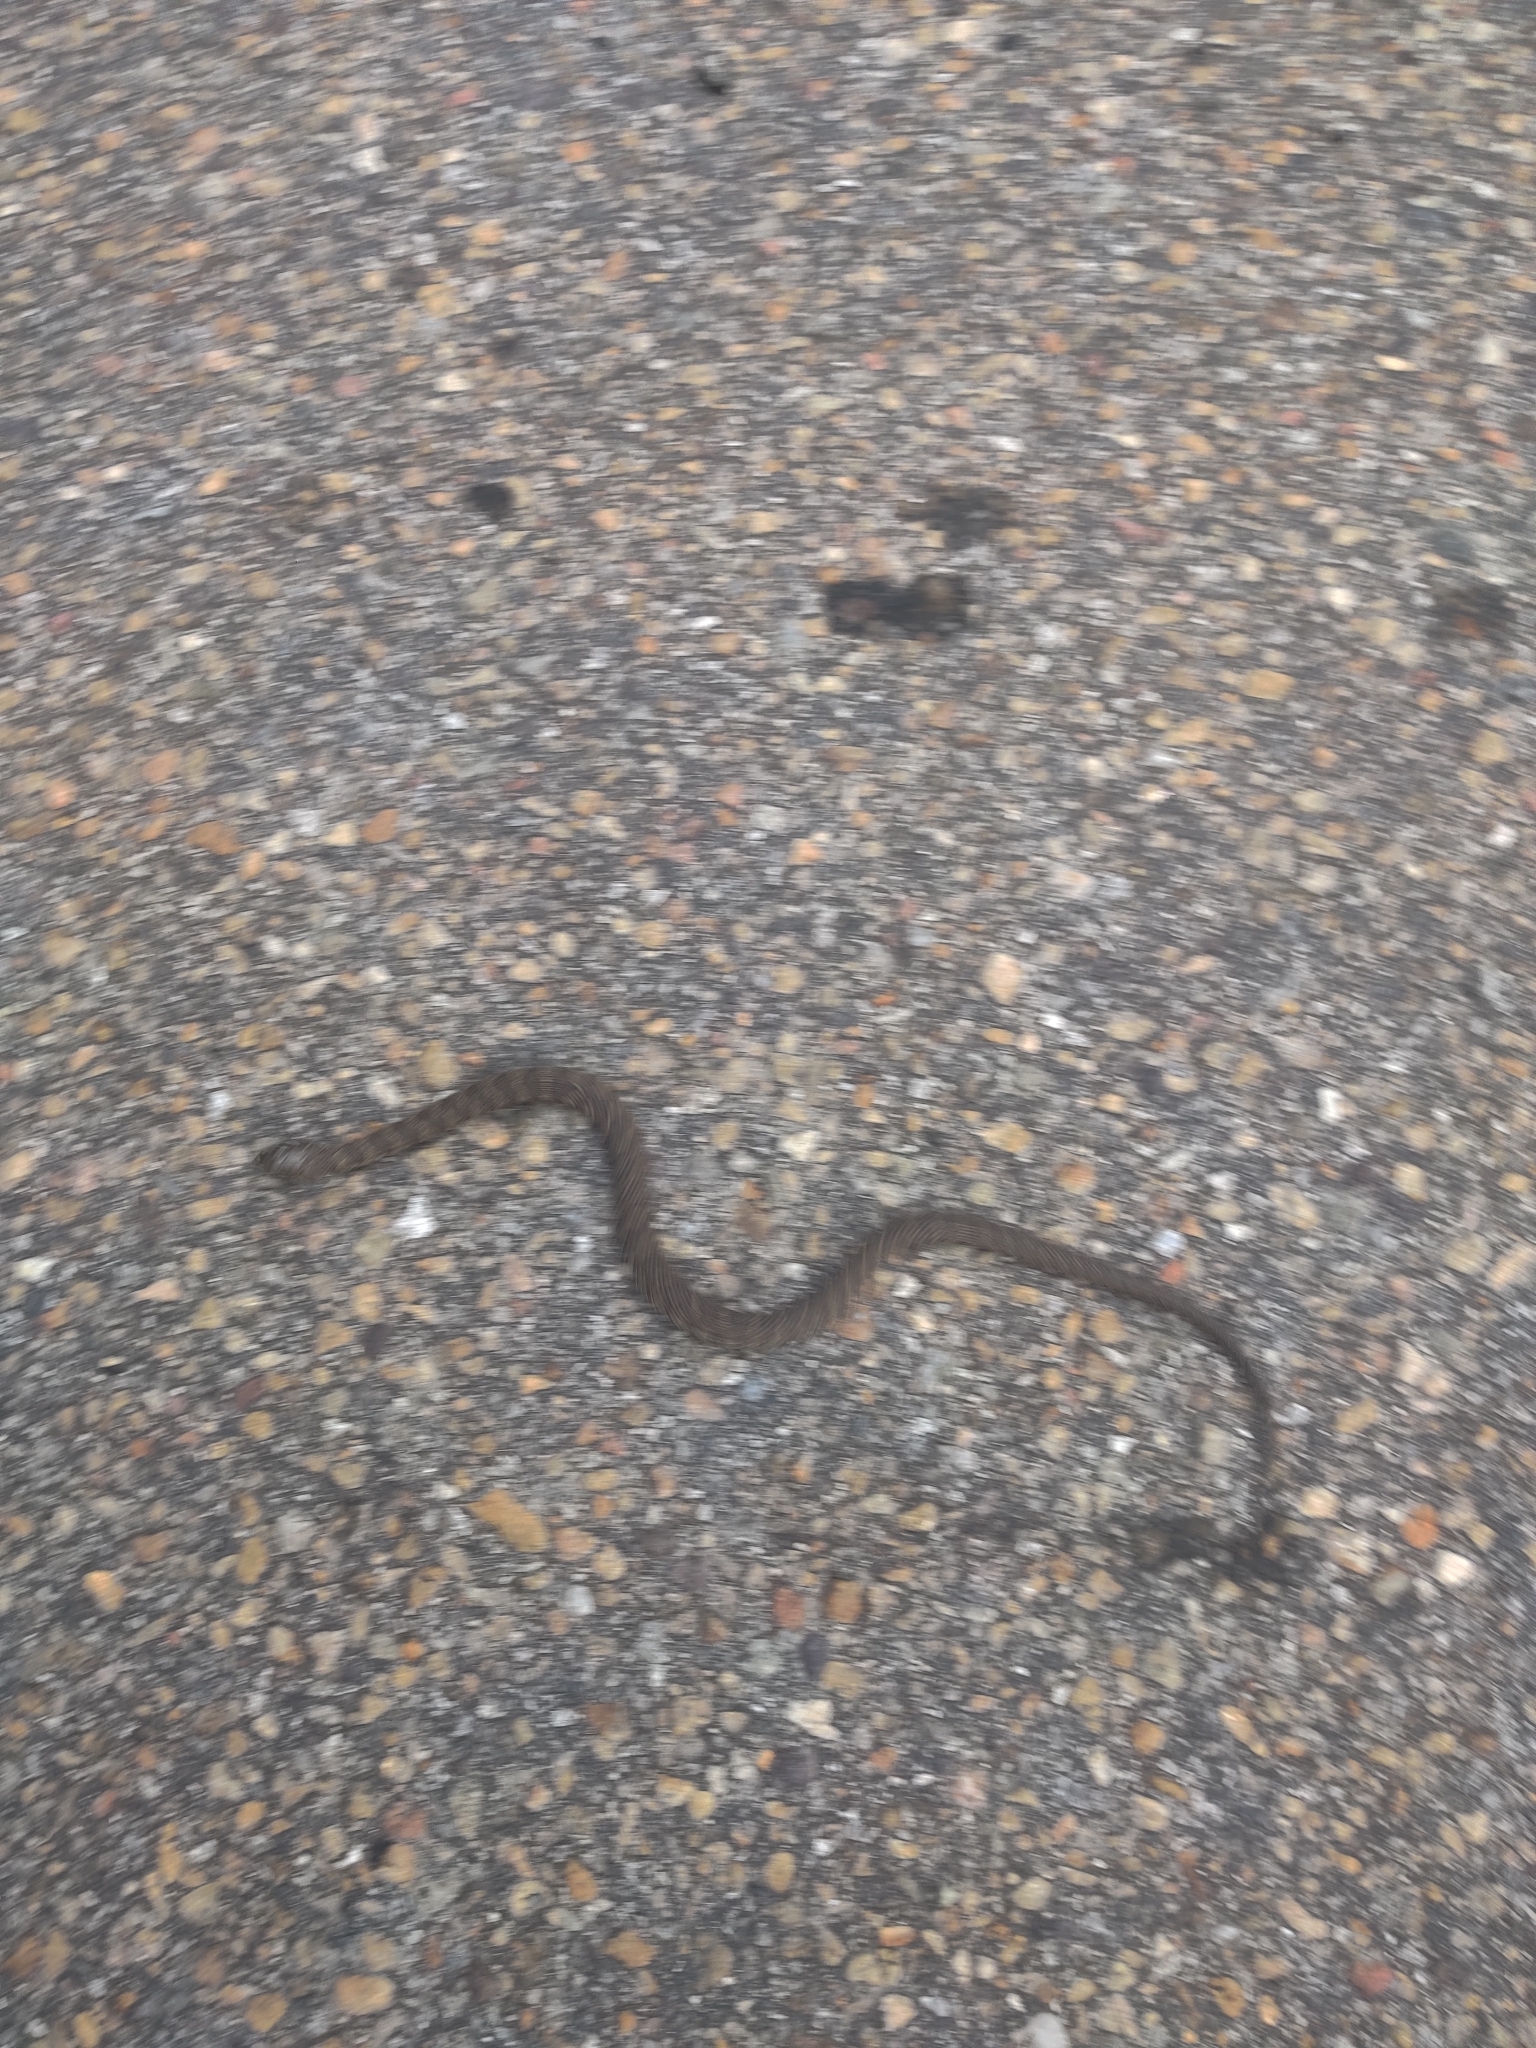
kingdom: Animalia
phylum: Chordata
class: Squamata
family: Colubridae
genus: Nerodia
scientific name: Nerodia sipedon
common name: Northern water snake
